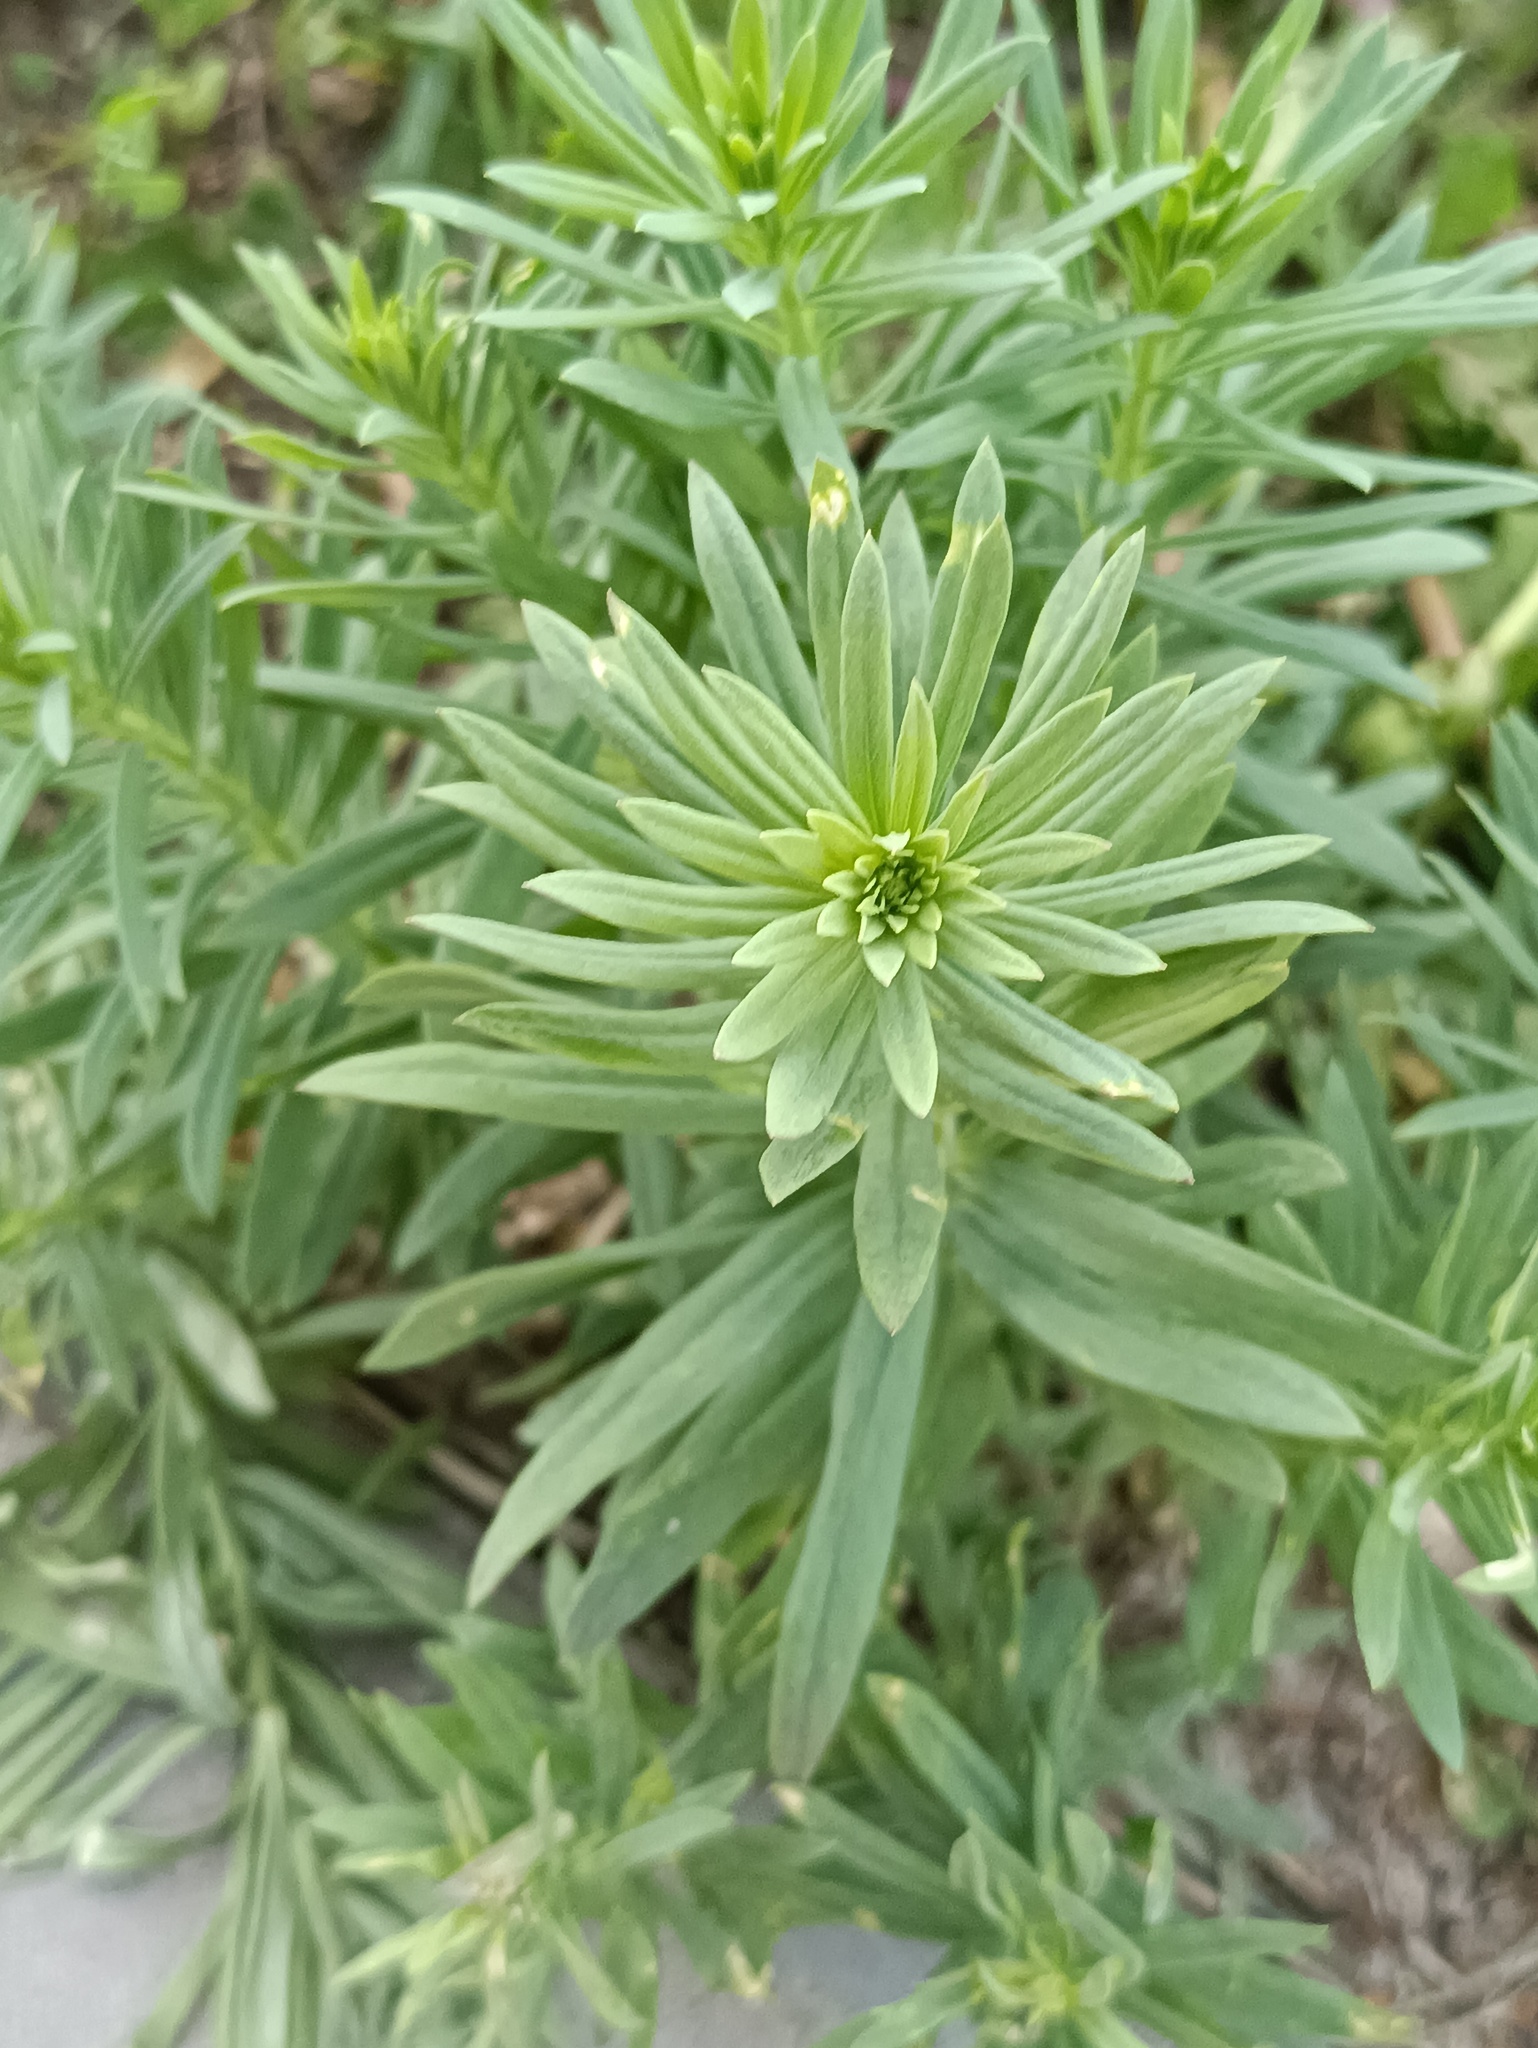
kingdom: Plantae
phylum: Tracheophyta
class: Magnoliopsida
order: Lamiales
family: Plantaginaceae
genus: Linaria
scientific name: Linaria vulgaris
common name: Butter and eggs
